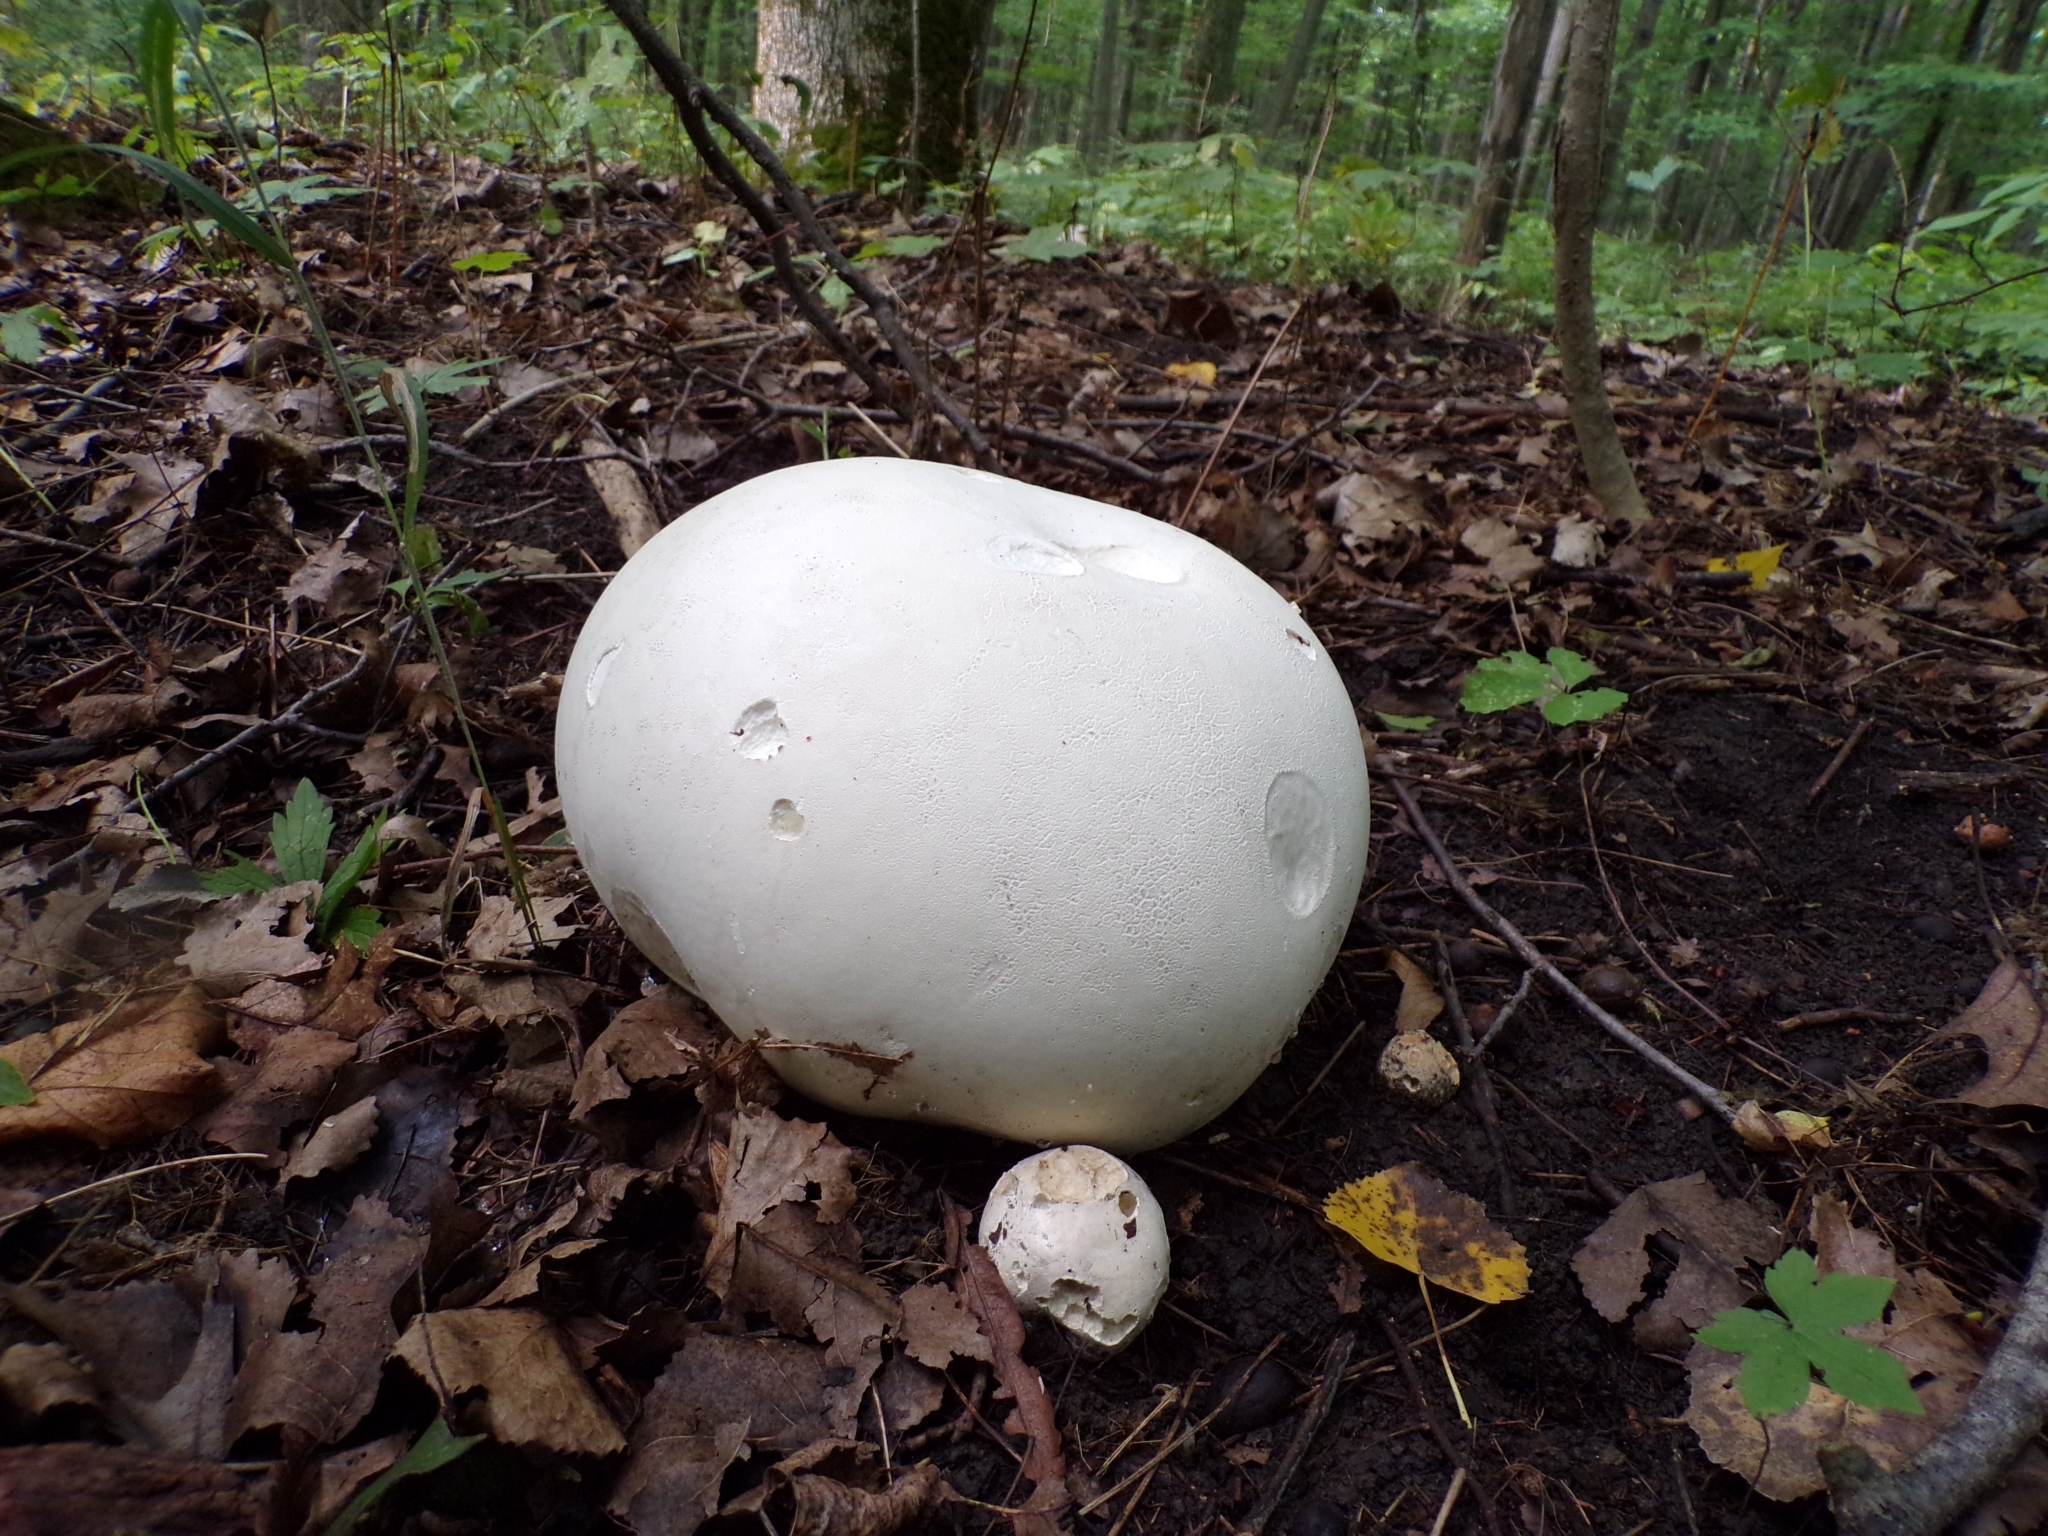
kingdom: Fungi
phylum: Basidiomycota
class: Agaricomycetes
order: Agaricales
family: Lycoperdaceae
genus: Calvatia
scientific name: Calvatia gigantea
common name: Giant puffball
